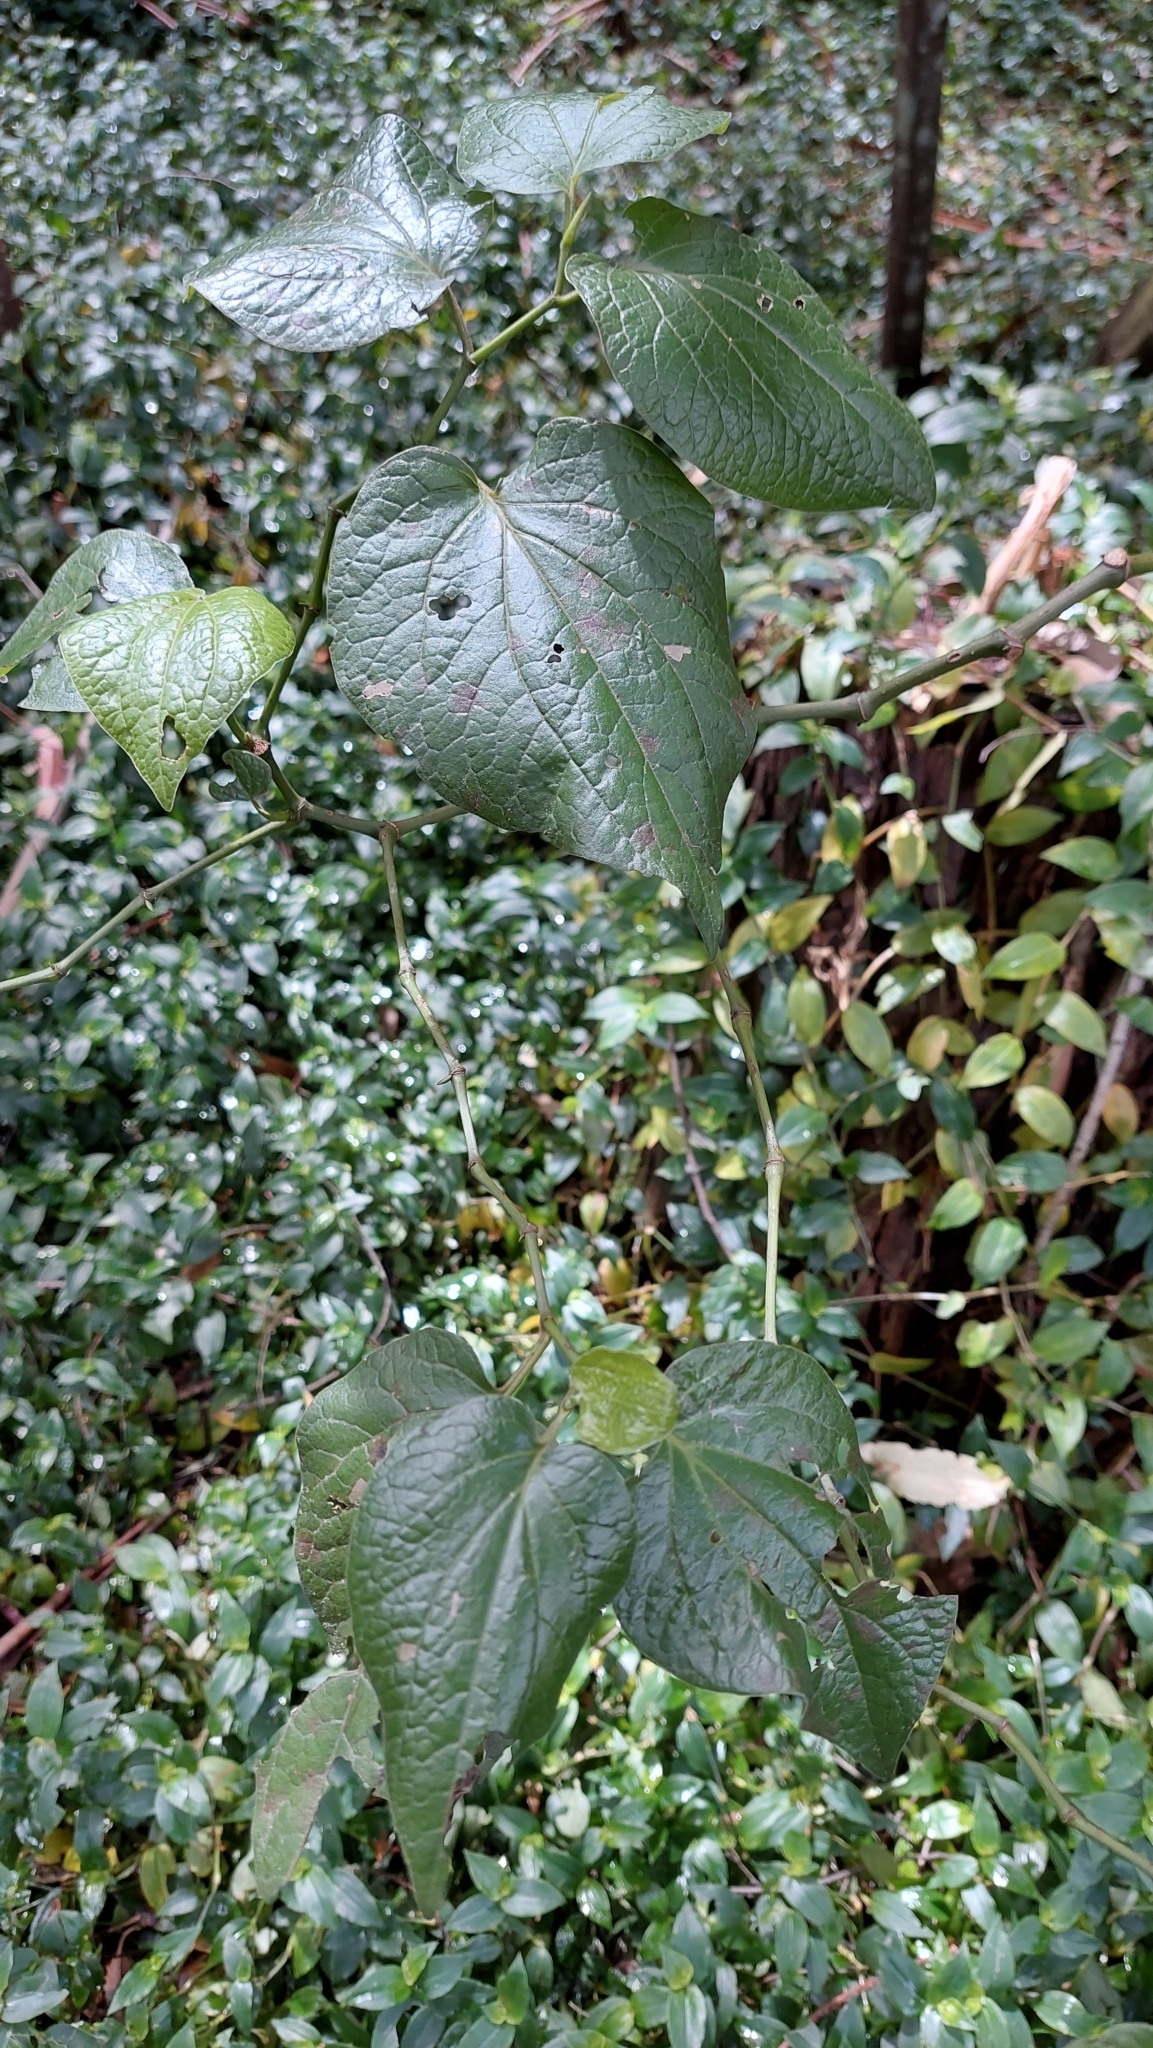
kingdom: Plantae
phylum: Tracheophyta
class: Magnoliopsida
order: Piperales
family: Piperaceae
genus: Piper
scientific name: Piper barbatum
